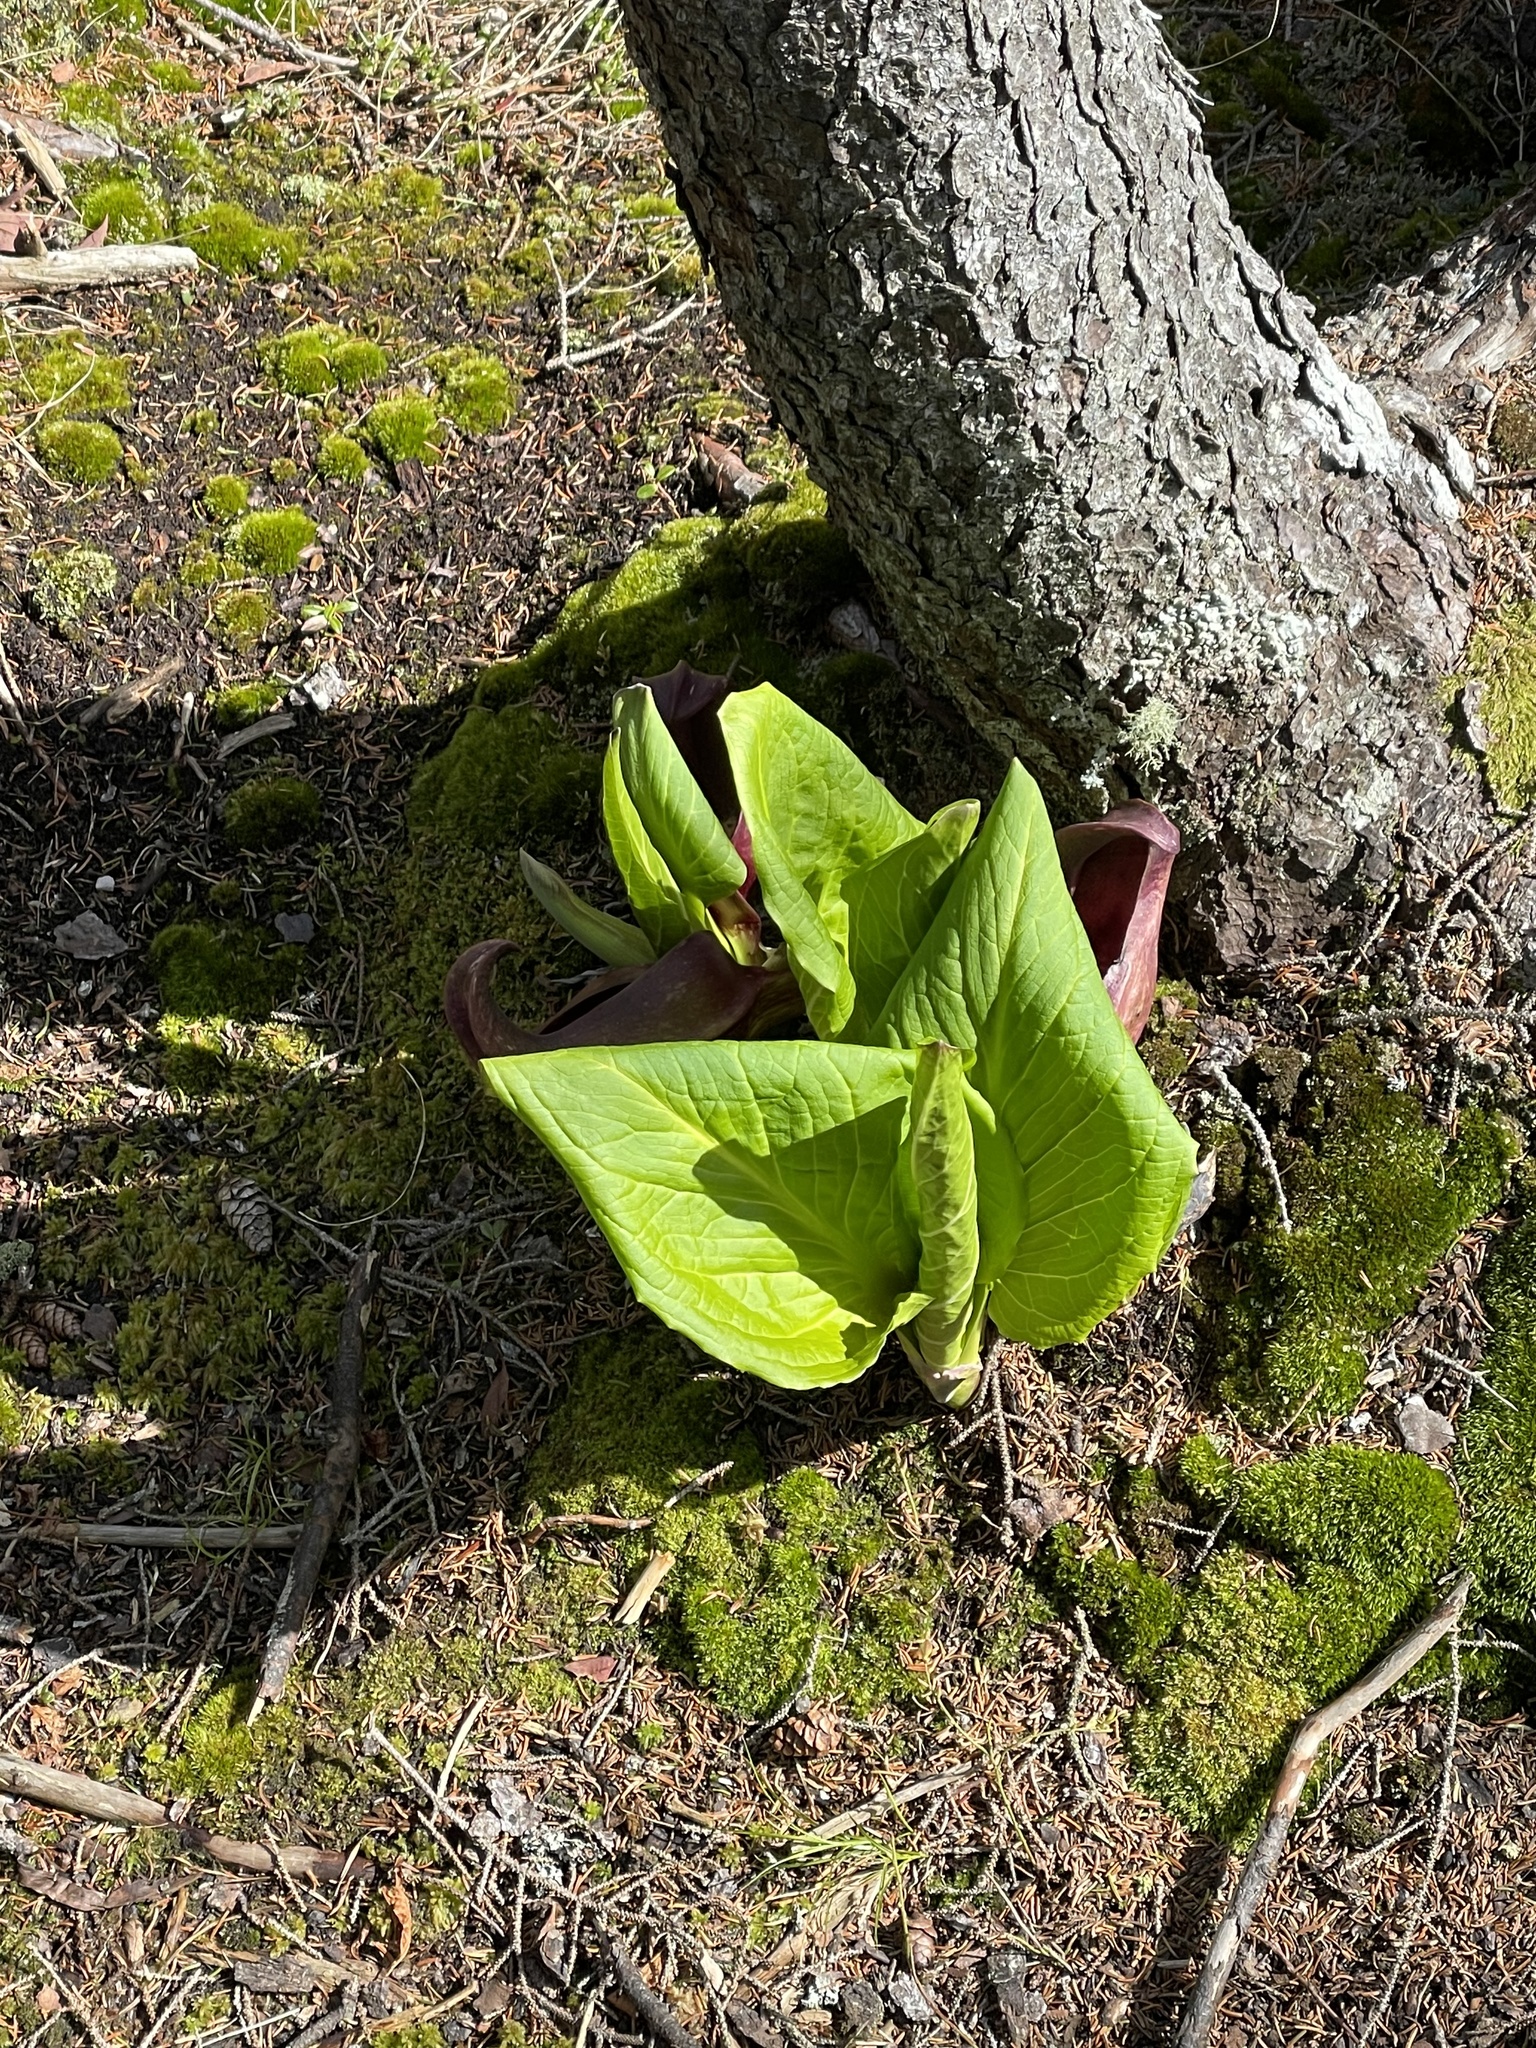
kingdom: Plantae
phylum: Tracheophyta
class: Liliopsida
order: Alismatales
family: Araceae
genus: Symplocarpus
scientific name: Symplocarpus foetidus
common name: Eastern skunk cabbage
